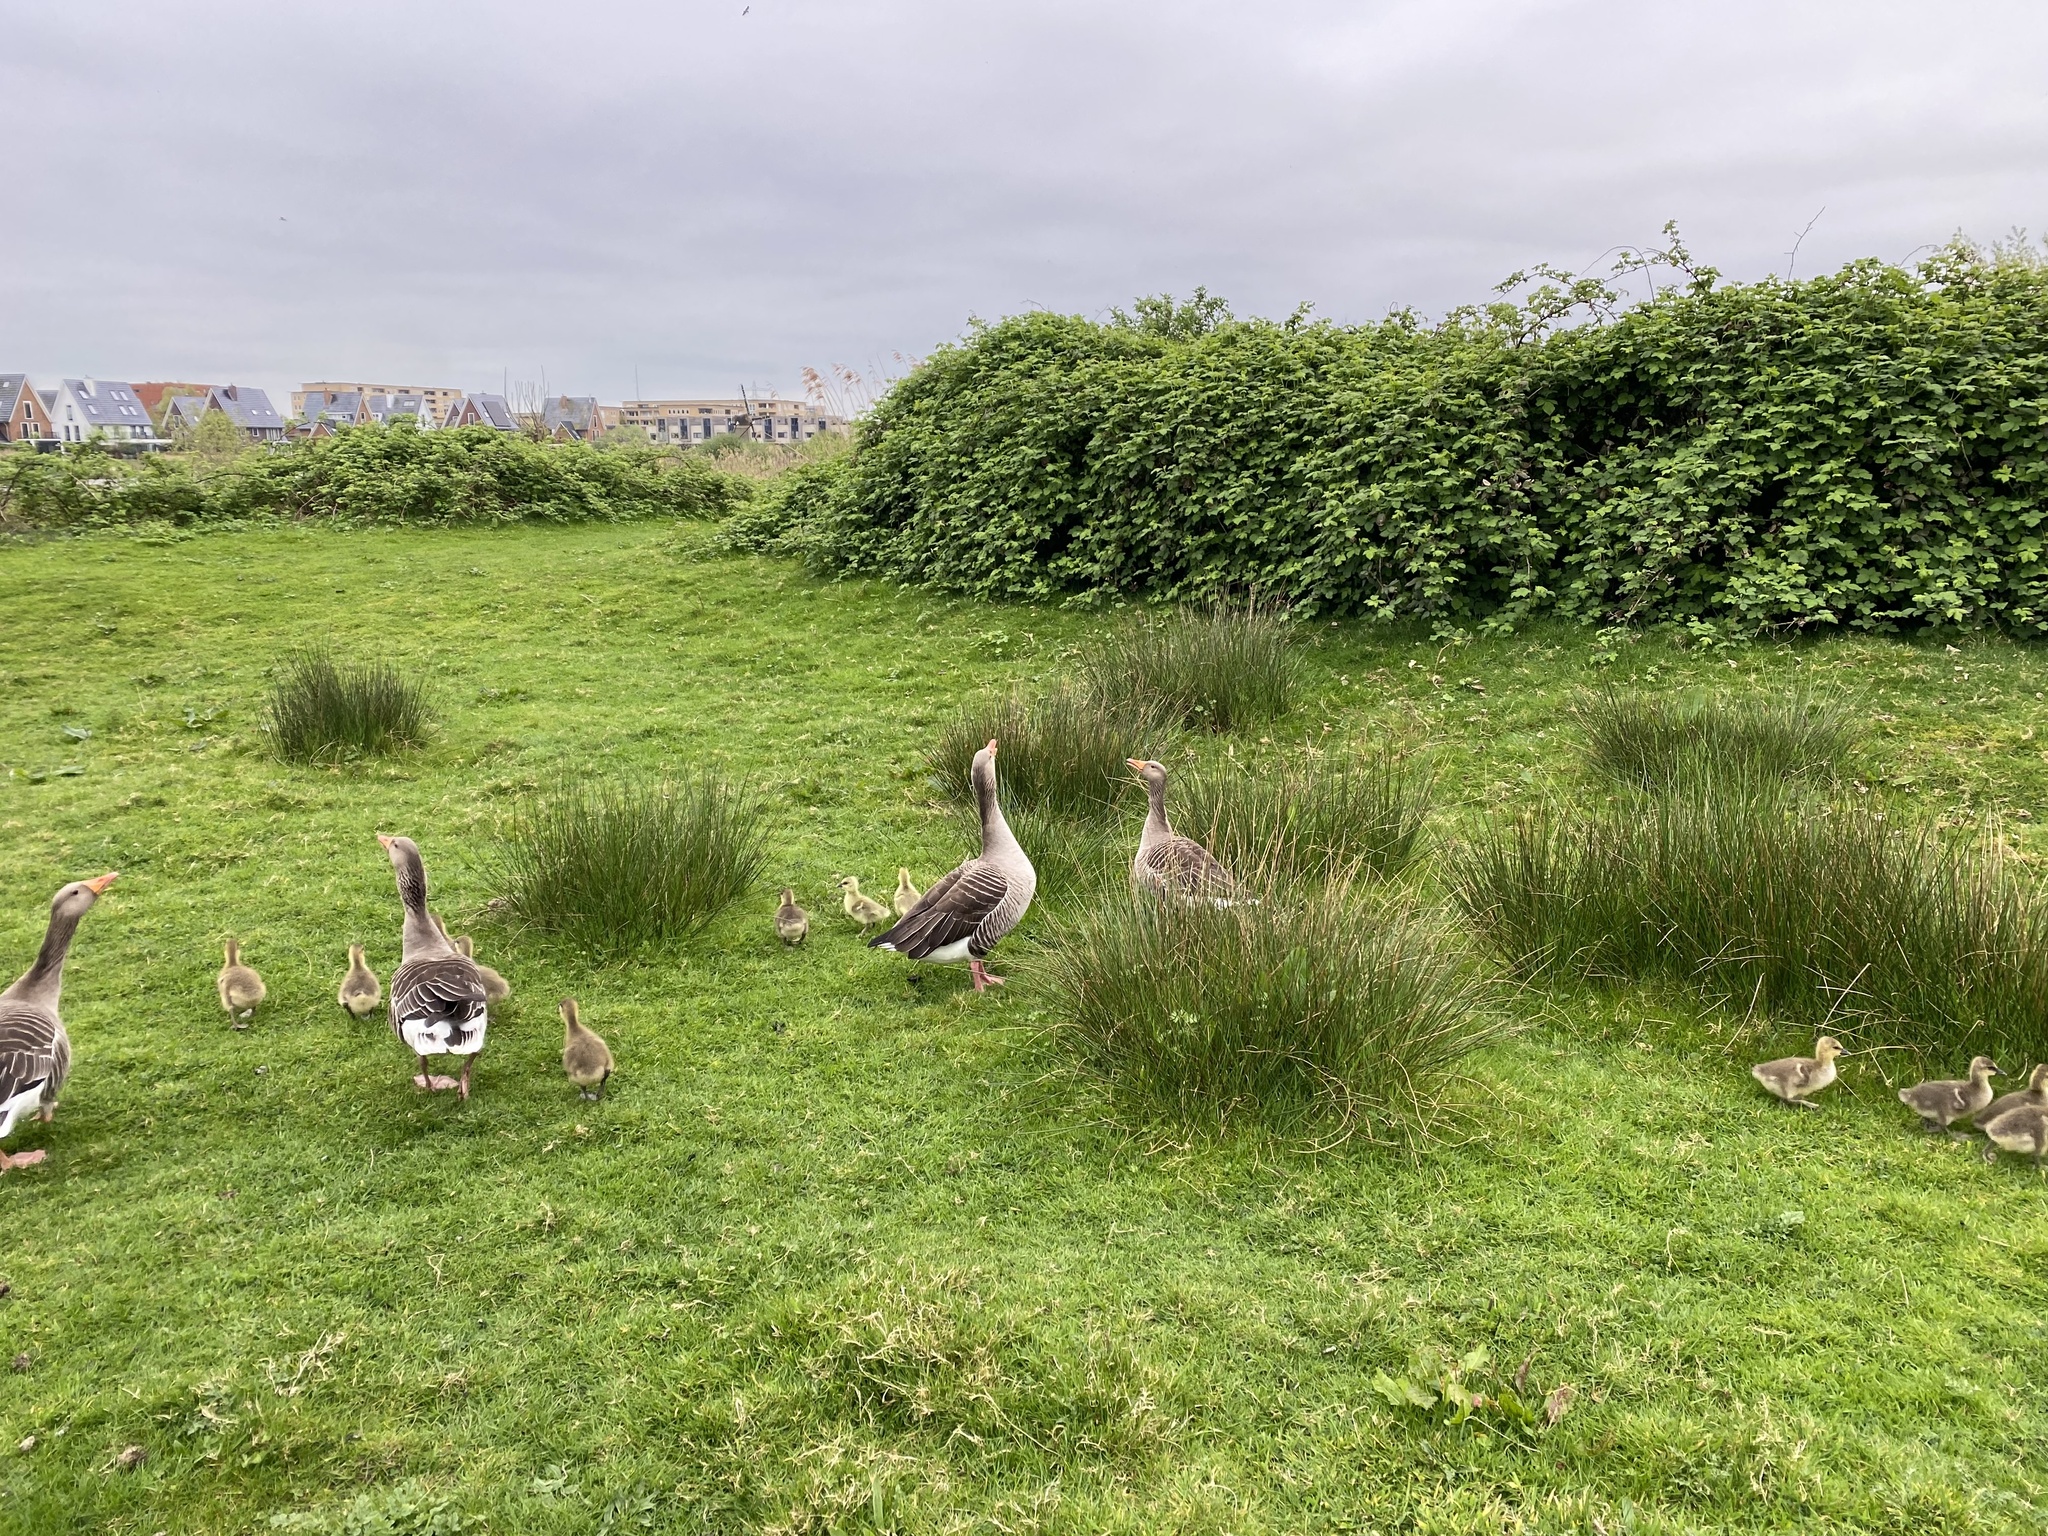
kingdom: Animalia
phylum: Chordata
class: Aves
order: Anseriformes
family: Anatidae
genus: Anser
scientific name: Anser anser
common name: Greylag goose
